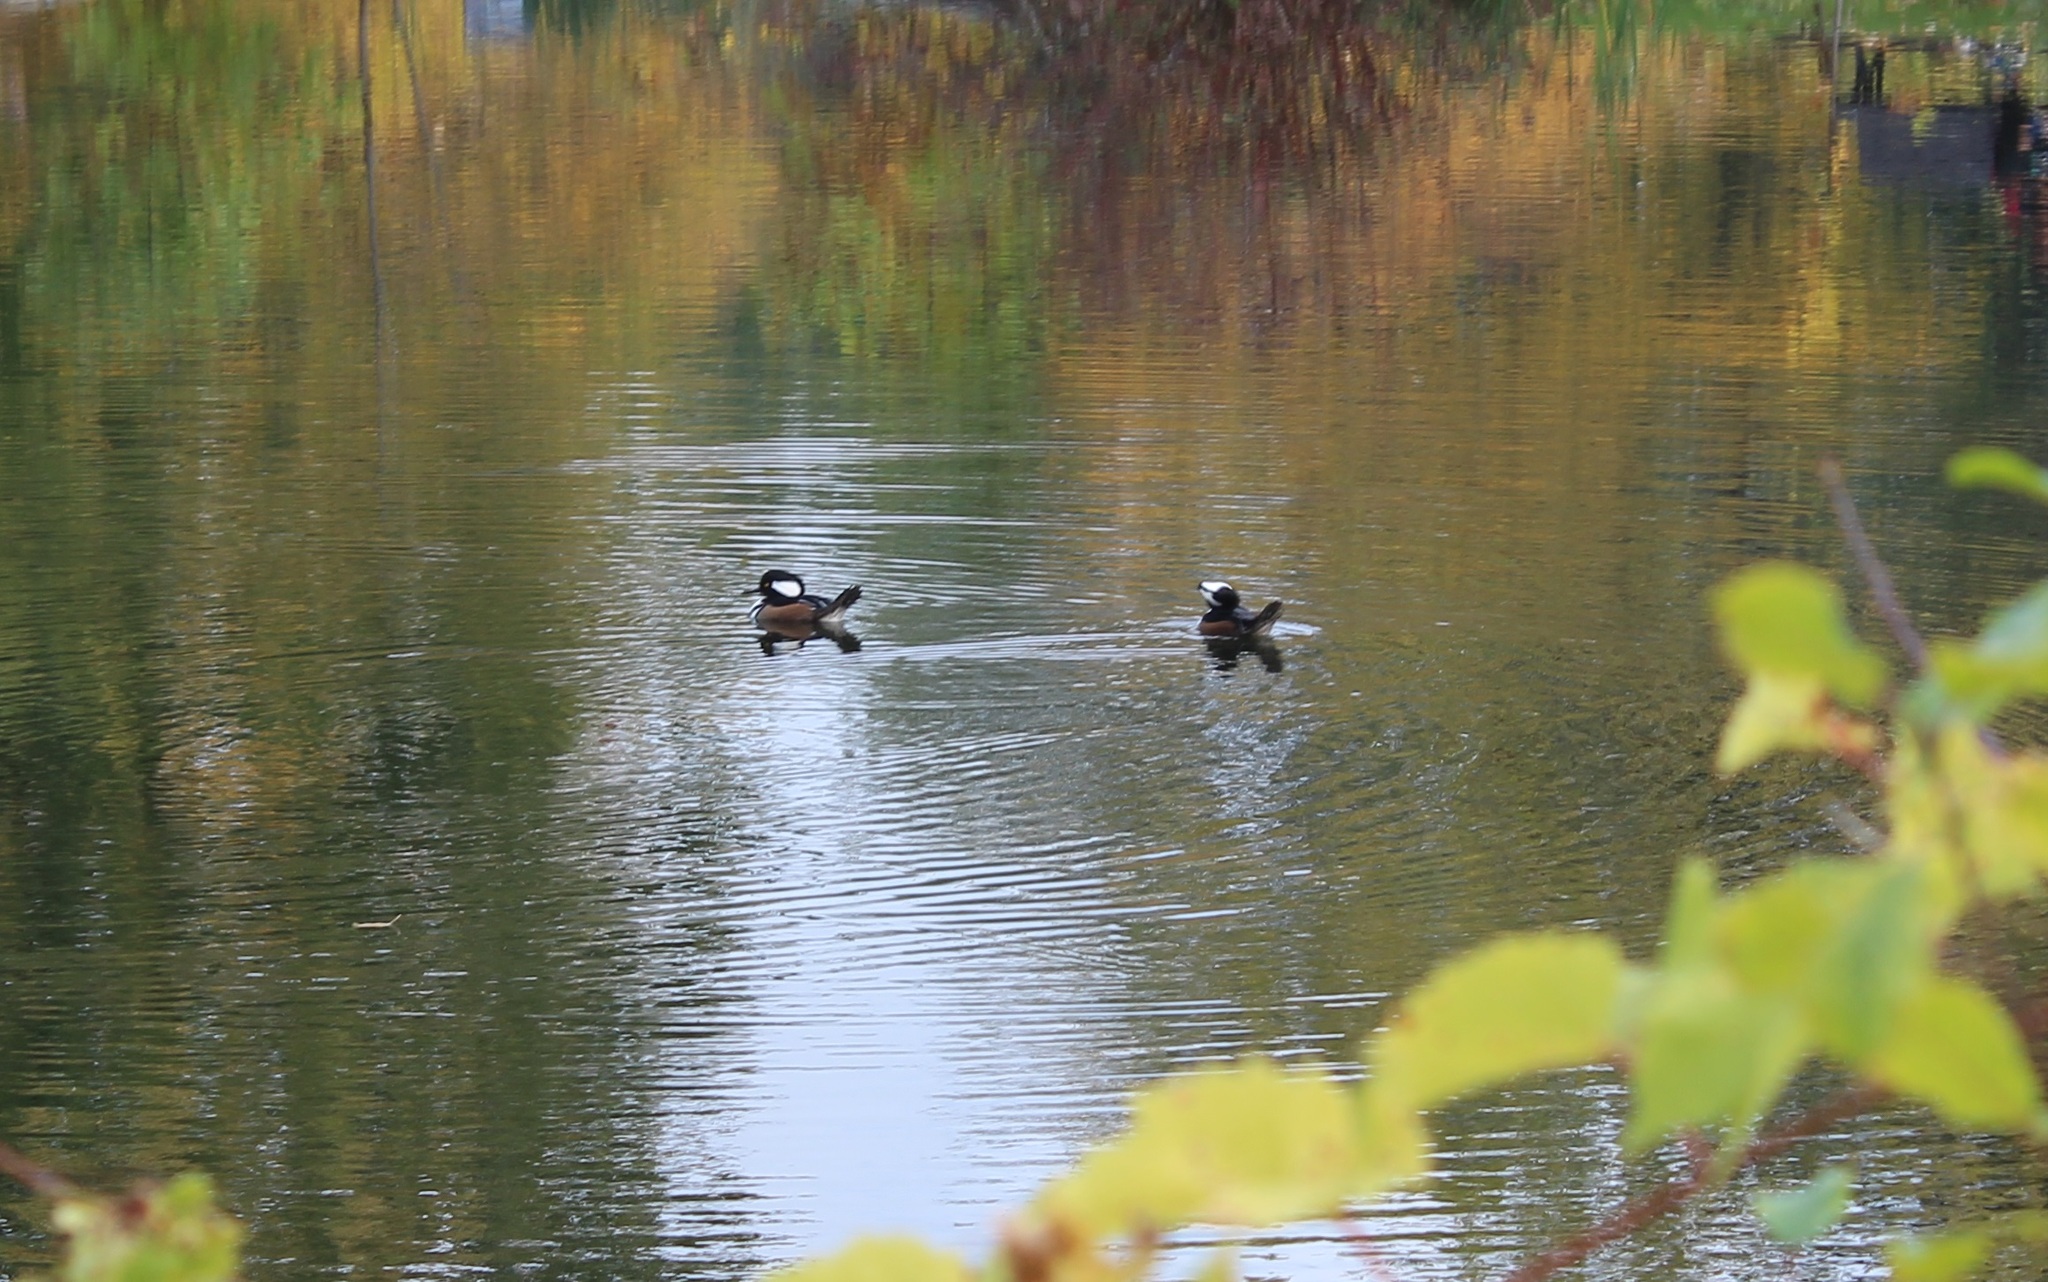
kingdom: Animalia
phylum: Chordata
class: Aves
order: Anseriformes
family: Anatidae
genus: Lophodytes
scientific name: Lophodytes cucullatus
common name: Hooded merganser
